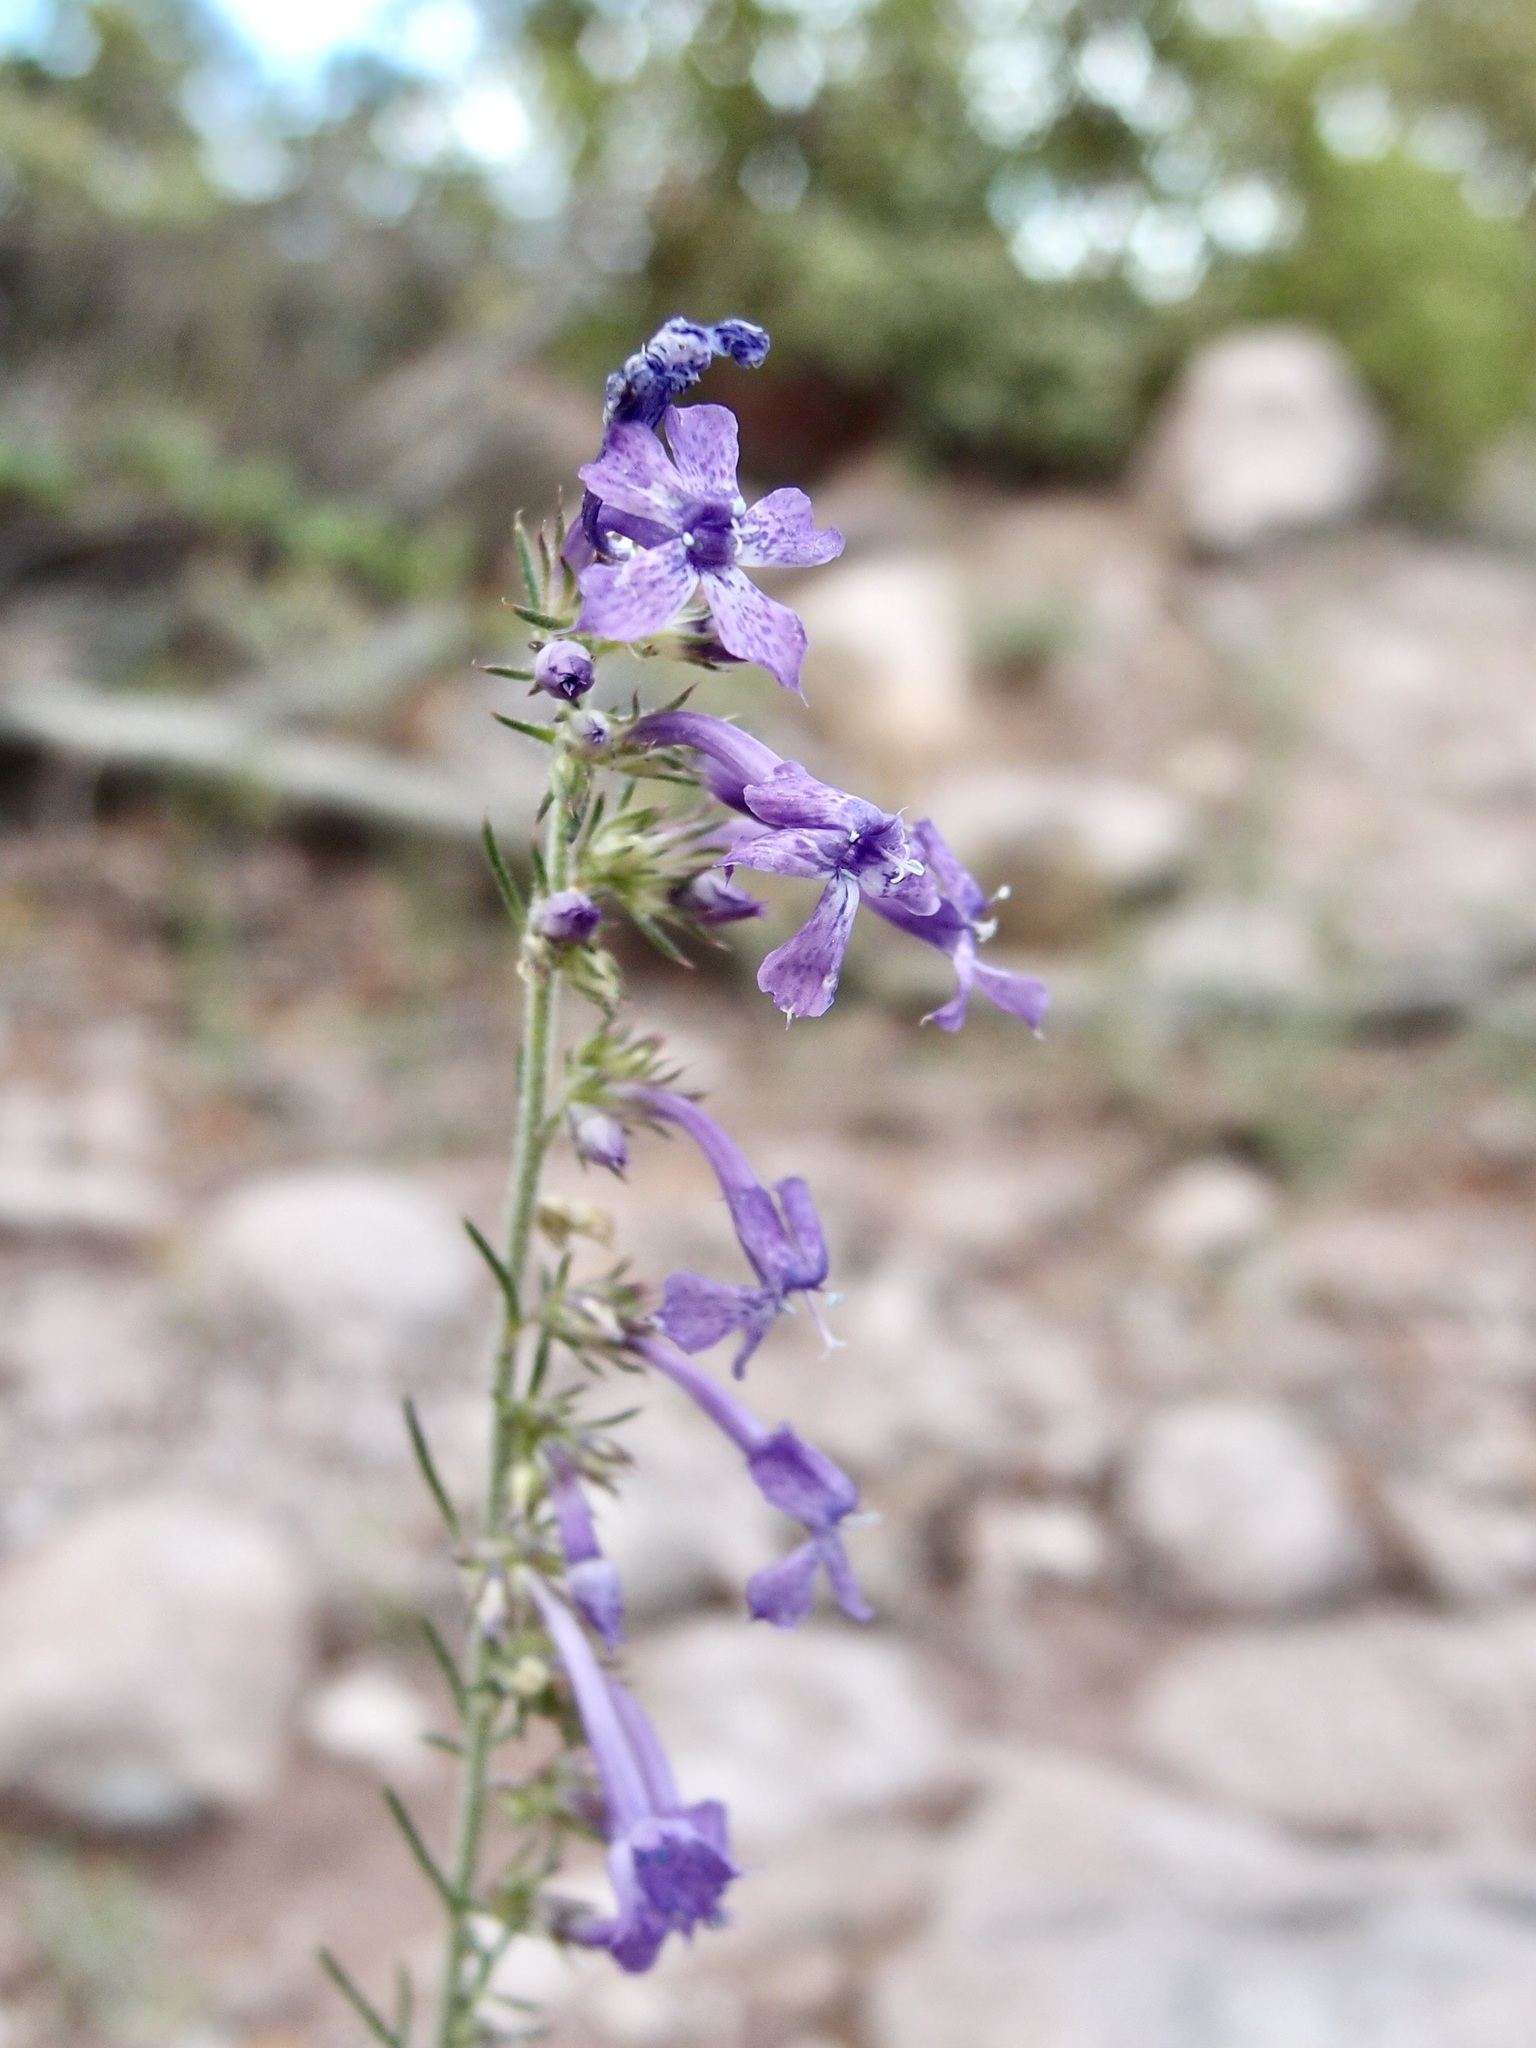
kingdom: Plantae
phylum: Tracheophyta
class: Magnoliopsida
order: Ericales
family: Polemoniaceae
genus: Ipomopsis
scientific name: Ipomopsis macombii
